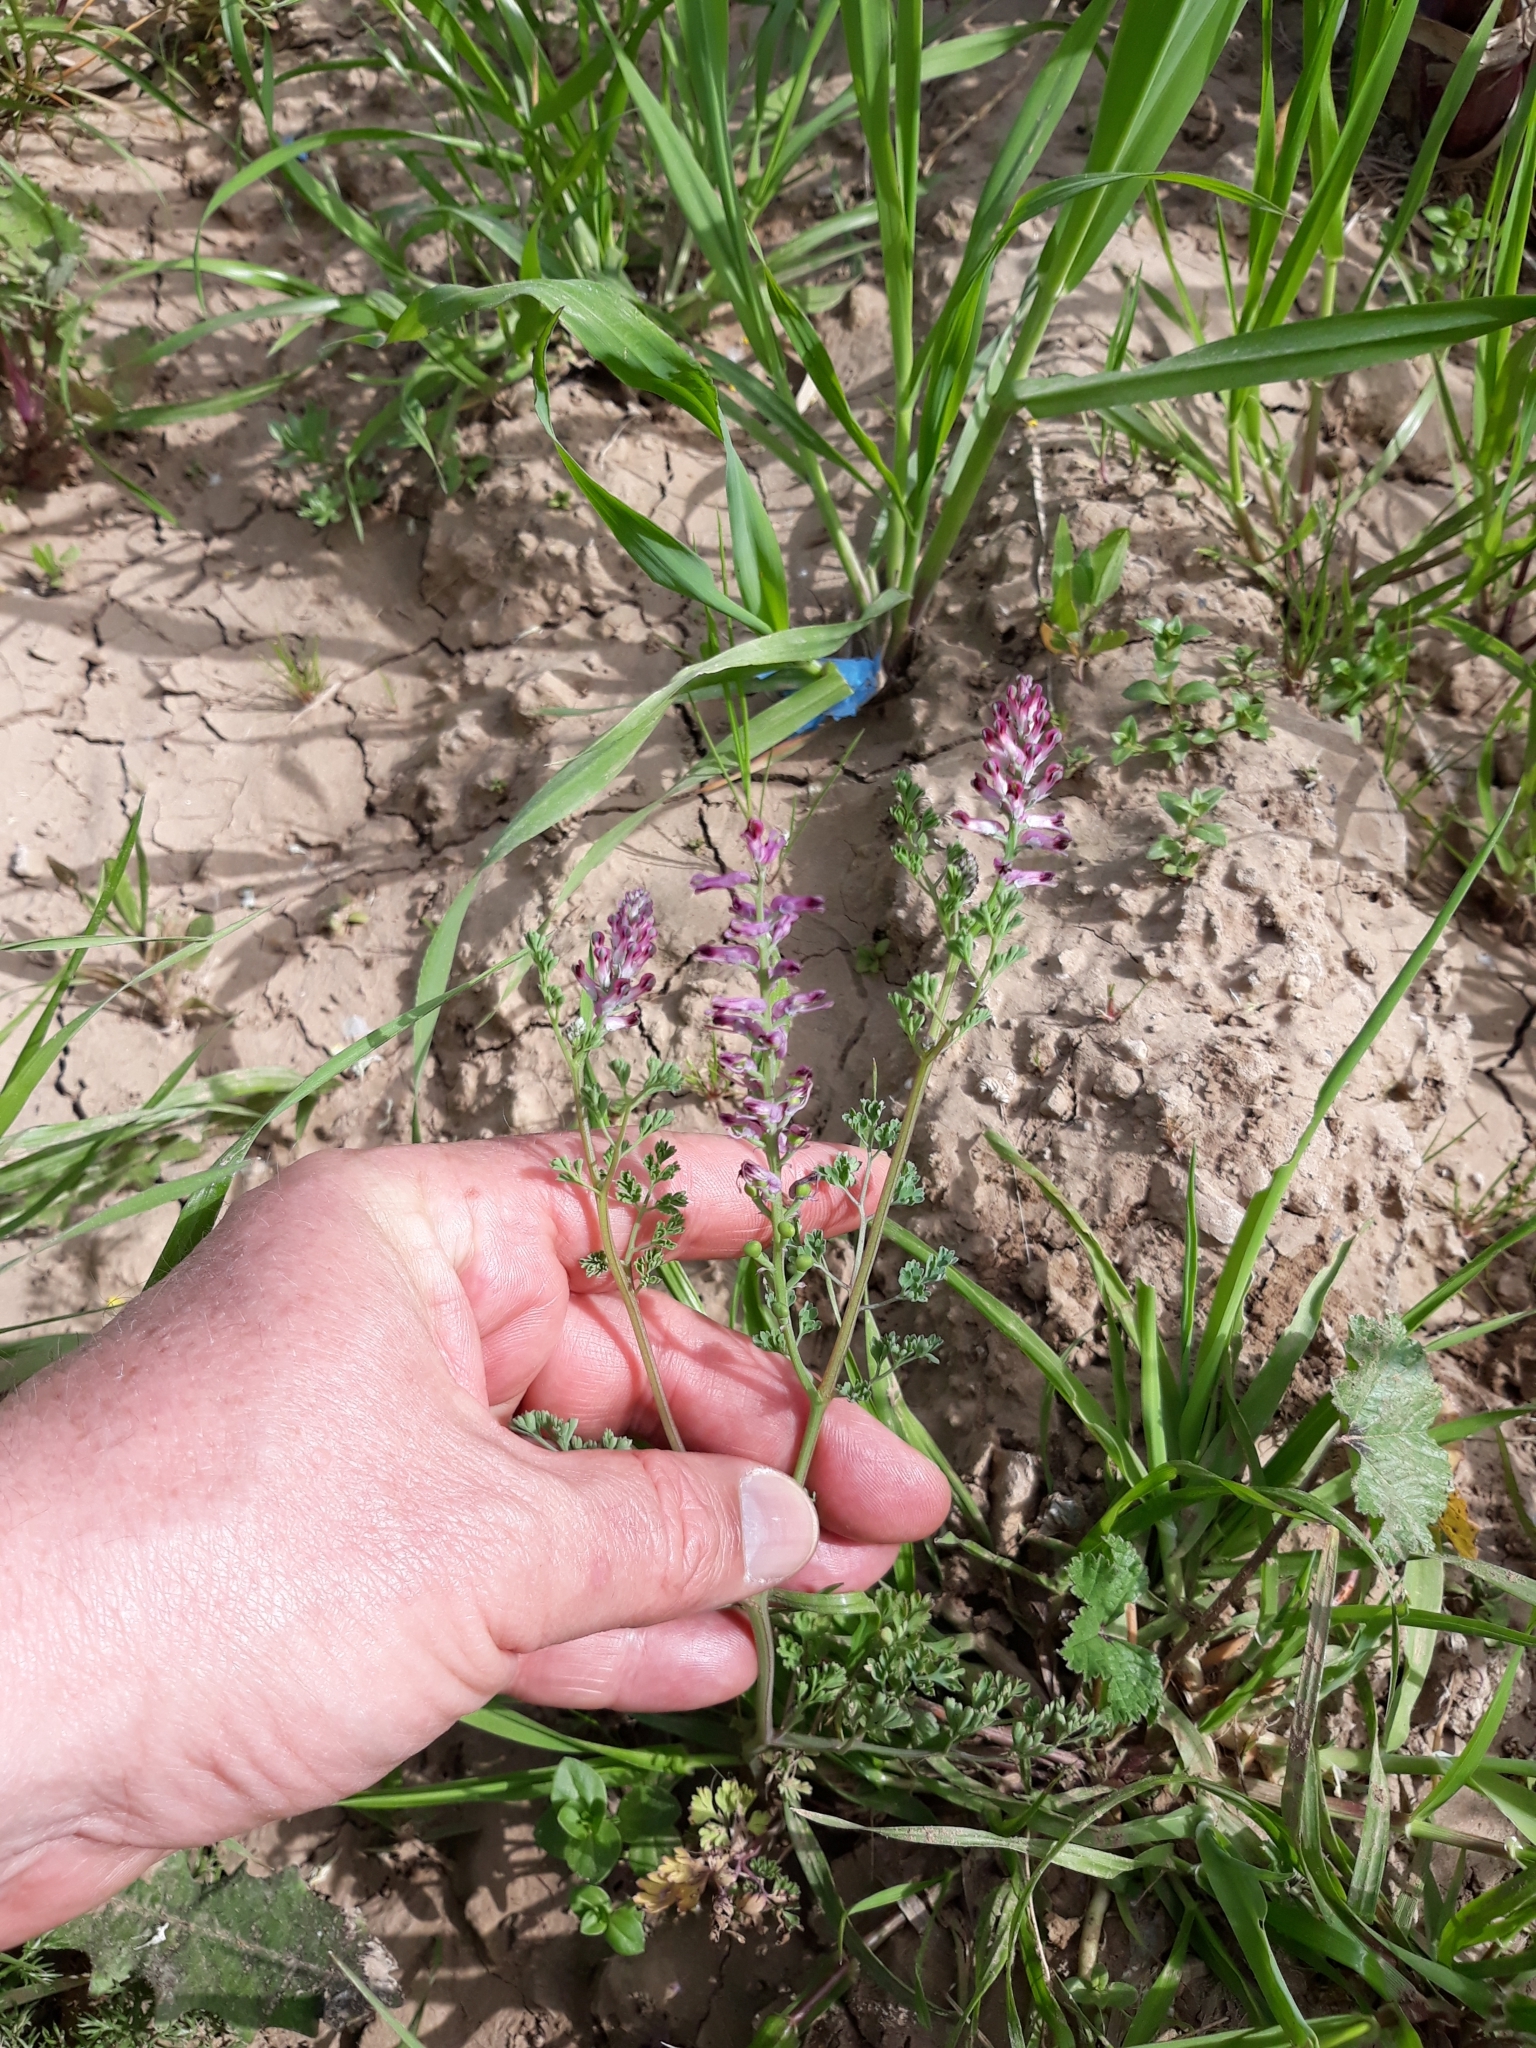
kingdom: Plantae
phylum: Tracheophyta
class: Magnoliopsida
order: Ranunculales
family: Papaveraceae
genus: Fumaria
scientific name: Fumaria officinalis
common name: Common fumitory
